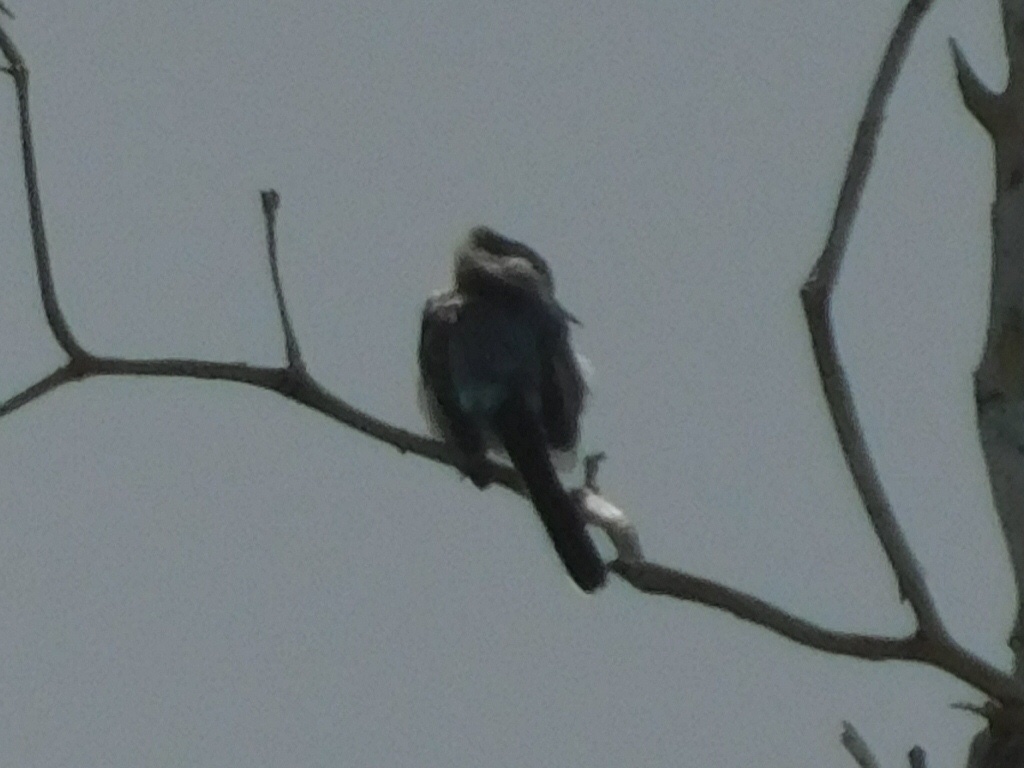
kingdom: Animalia
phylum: Chordata
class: Aves
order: Passeriformes
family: Polioptilidae
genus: Polioptila
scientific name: Polioptila caerulea
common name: Blue-gray gnatcatcher
